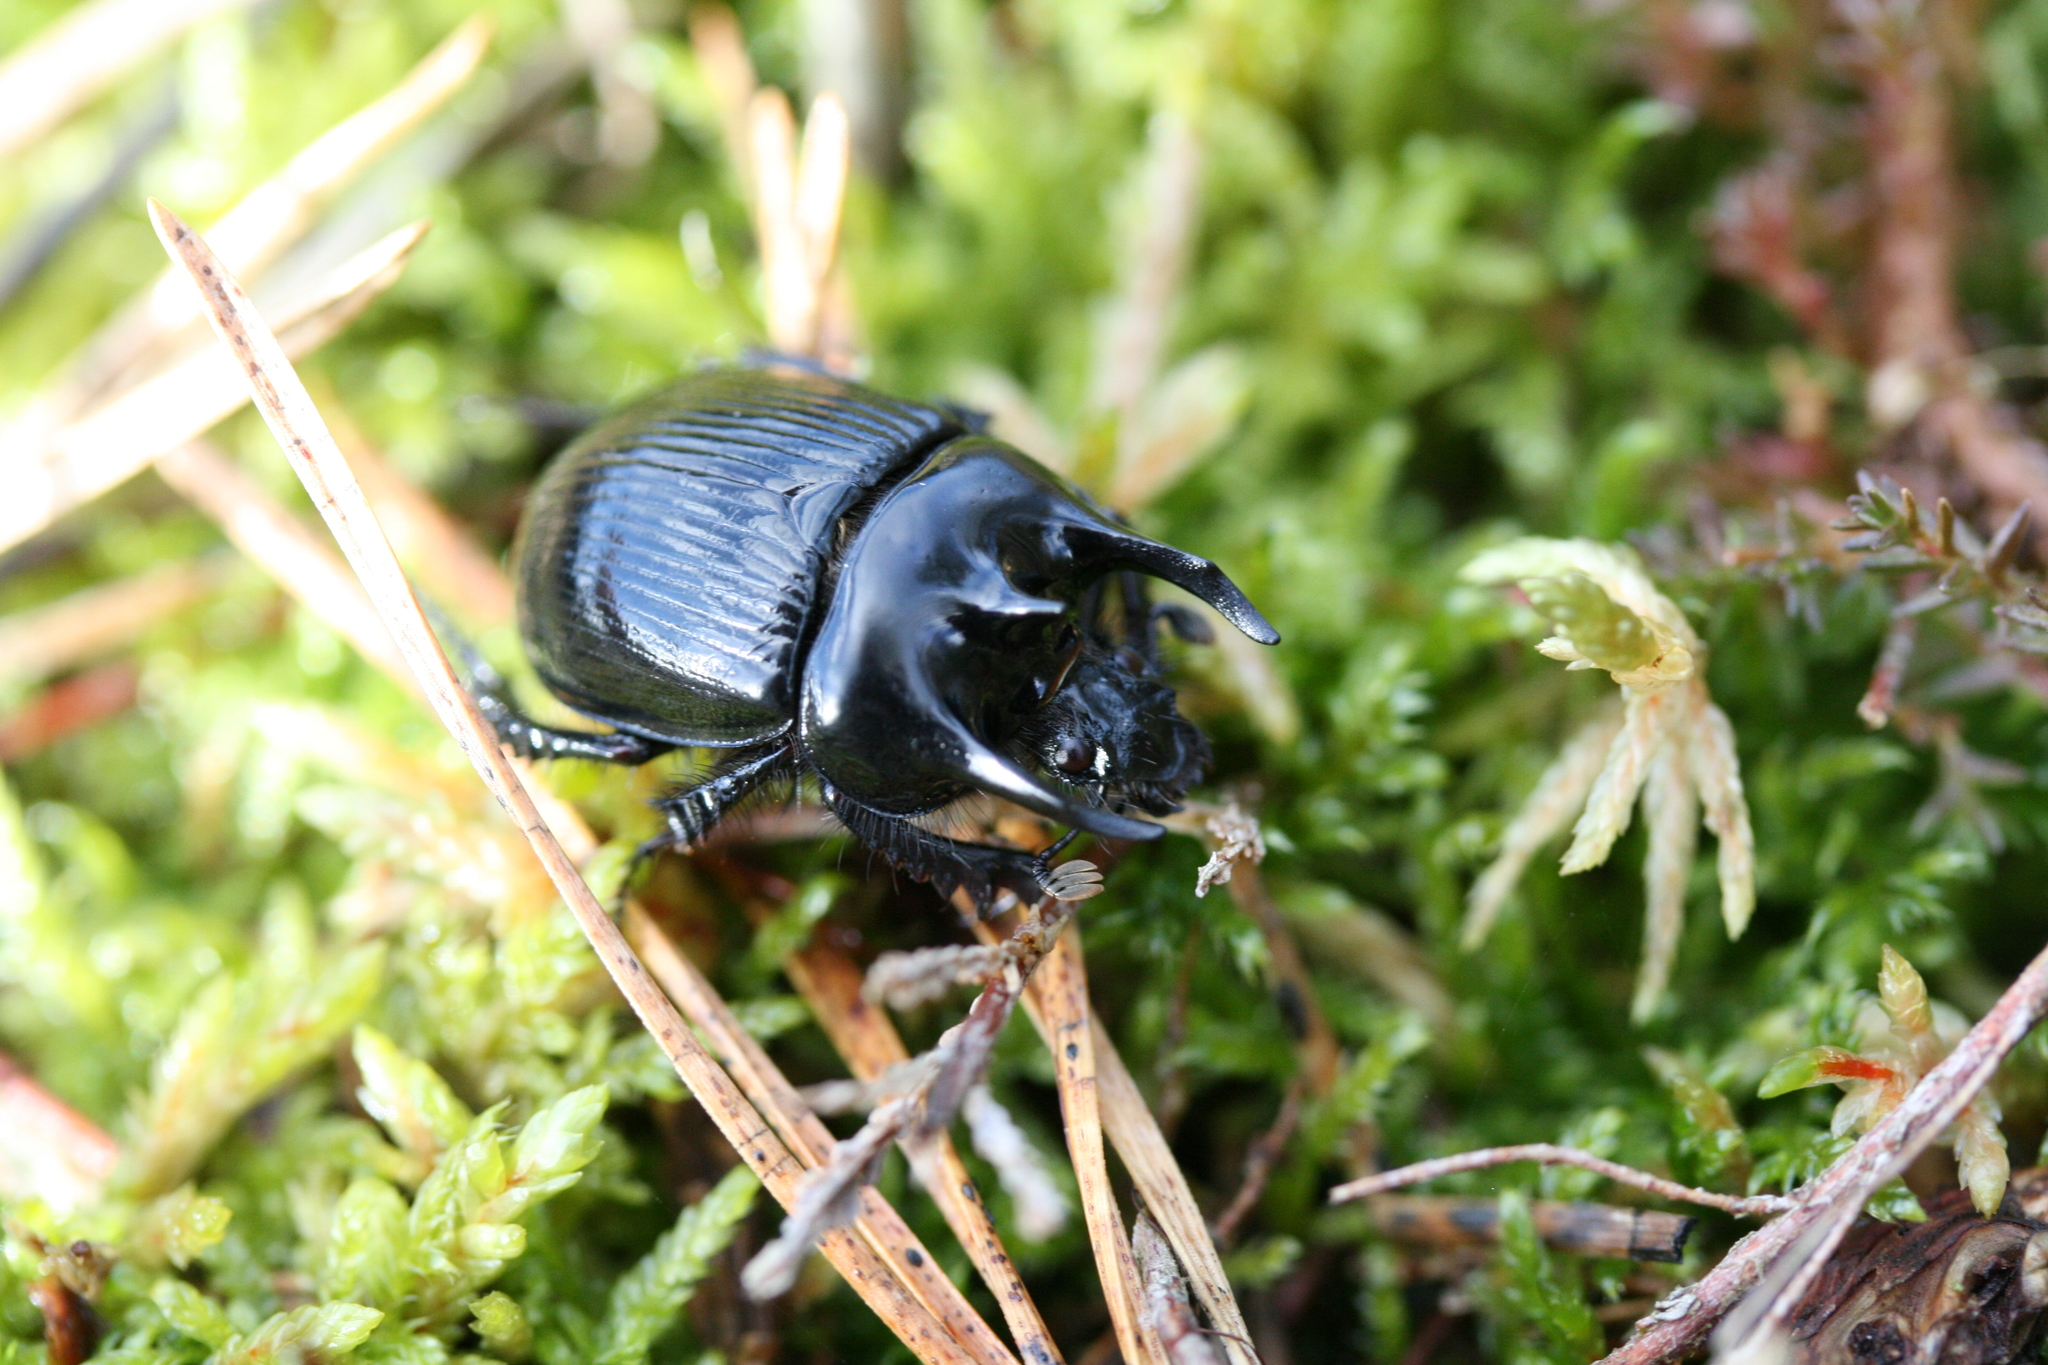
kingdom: Animalia
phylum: Arthropoda
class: Insecta
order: Coleoptera
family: Geotrupidae
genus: Typhaeus
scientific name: Typhaeus typhoeus
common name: Minotaur beetle
